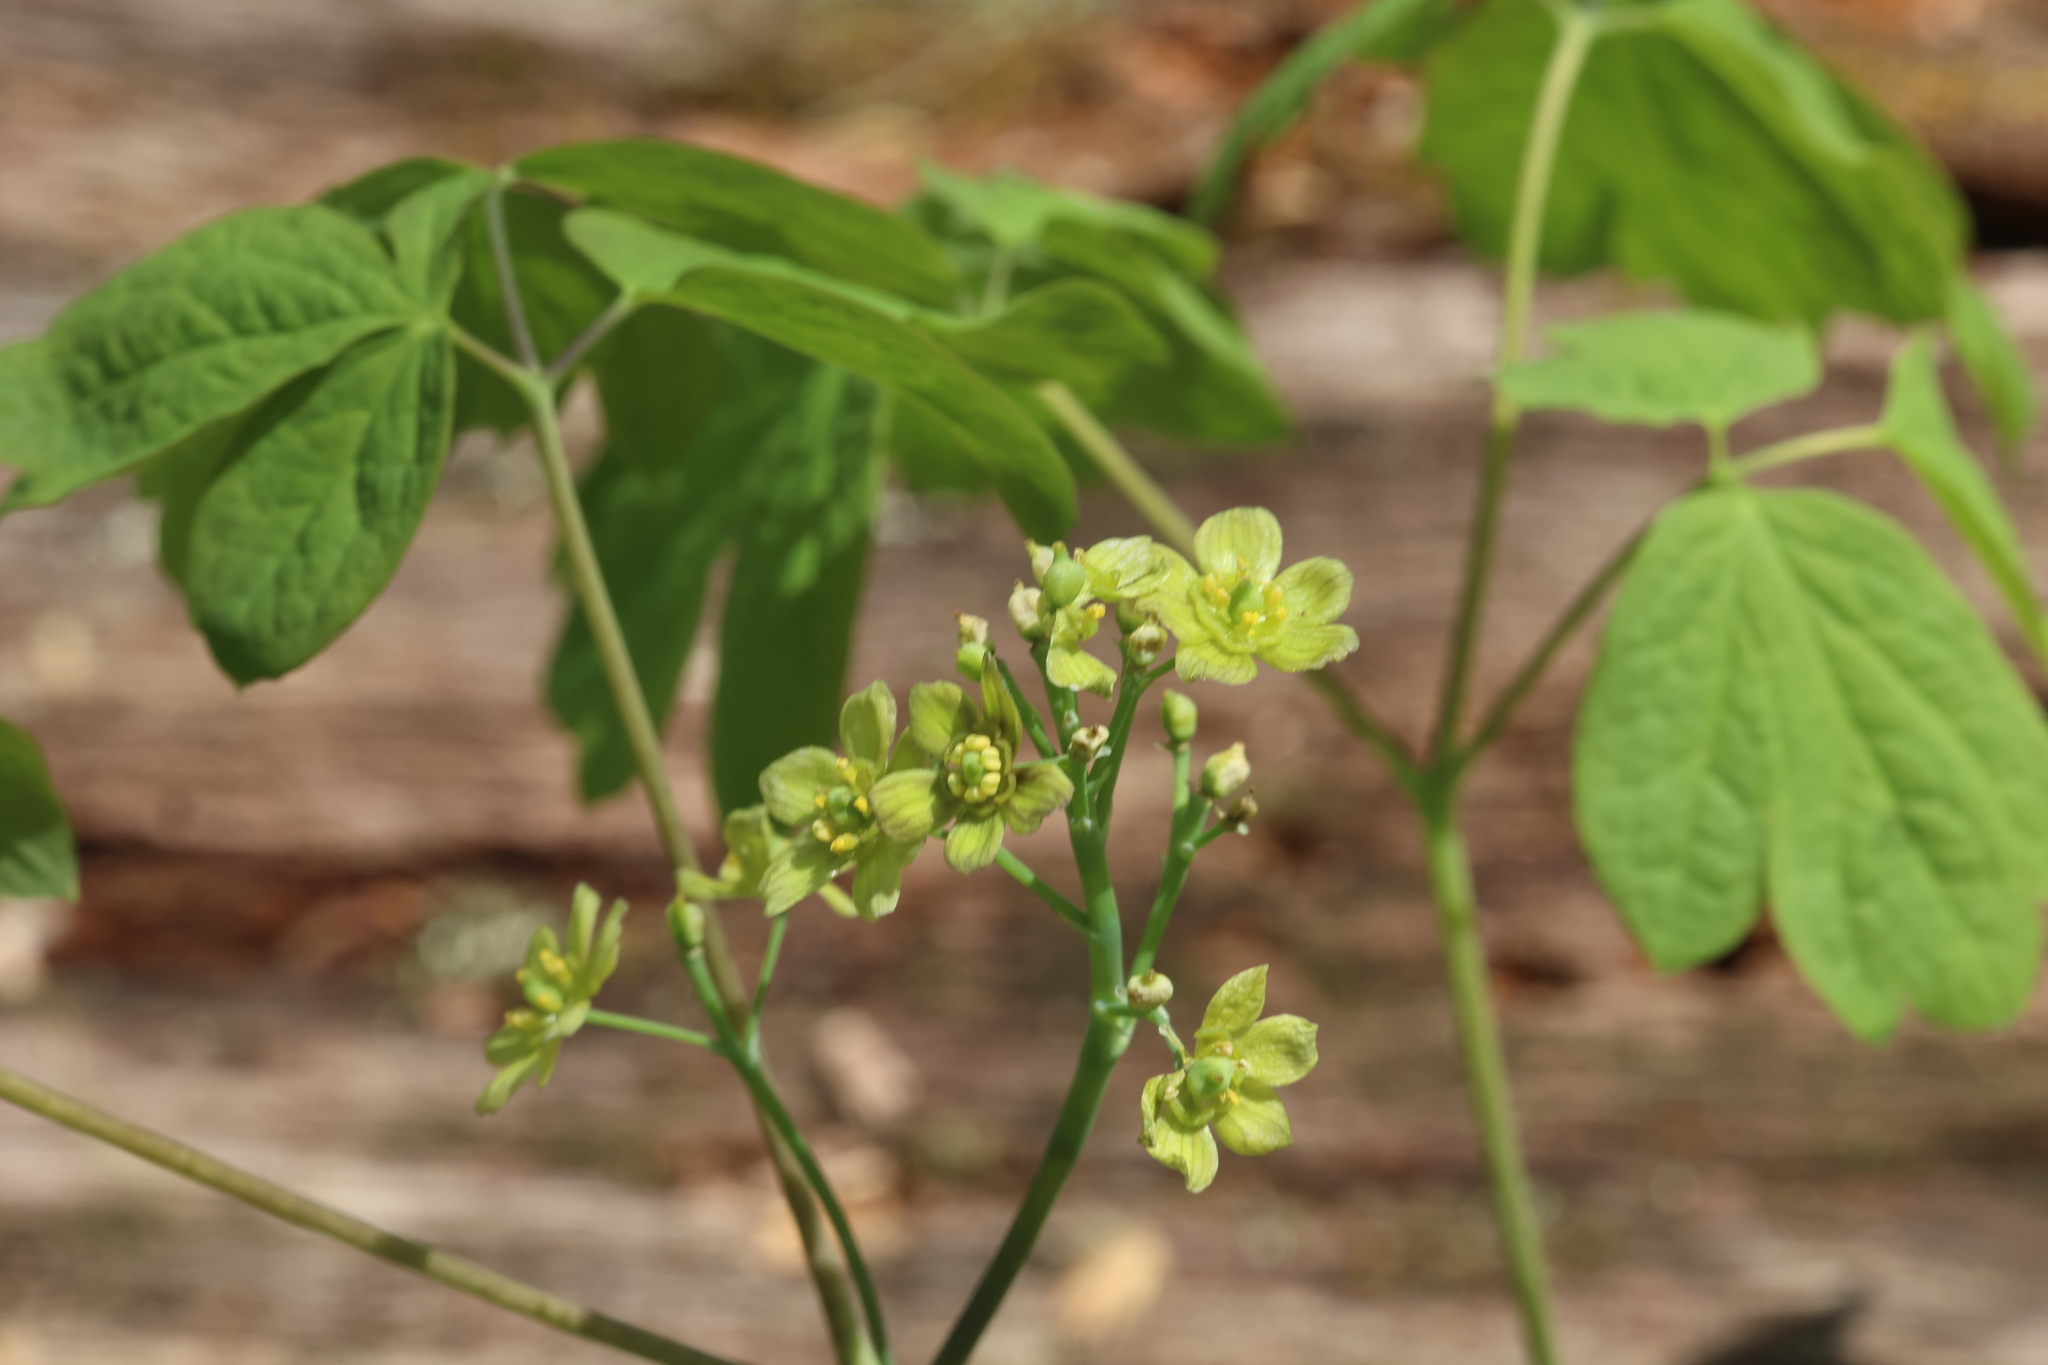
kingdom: Plantae
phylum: Tracheophyta
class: Magnoliopsida
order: Ranunculales
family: Berberidaceae
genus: Caulophyllum
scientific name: Caulophyllum thalictroides
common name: Blue cohosh
